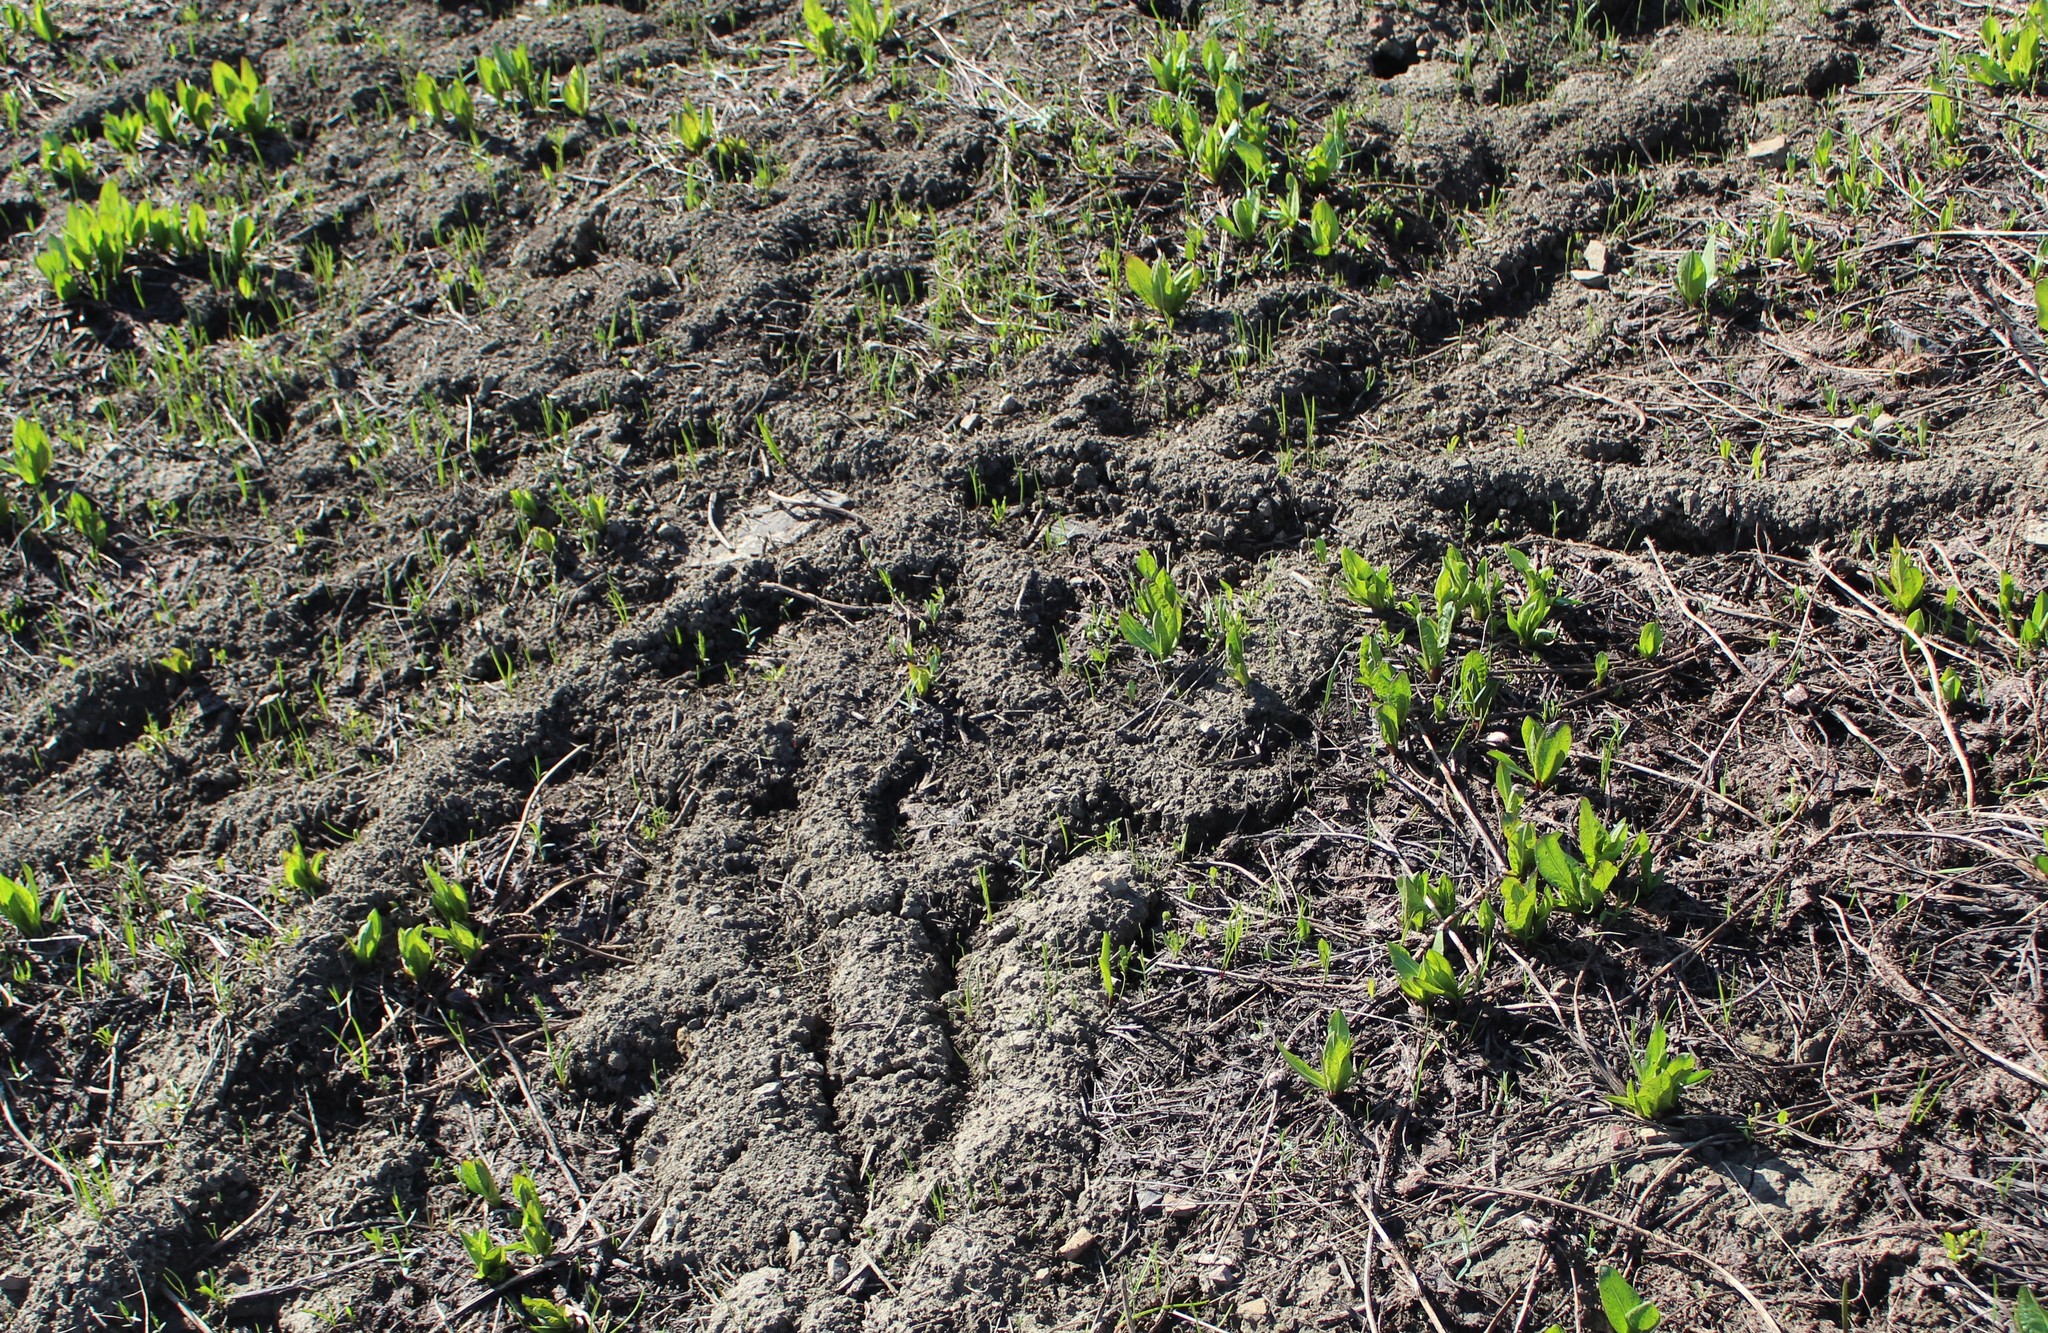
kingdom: Animalia
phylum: Chordata
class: Mammalia
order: Rodentia
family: Geomyidae
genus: Thomomys
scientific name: Thomomys talpoides
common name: Northern pocket gopher
